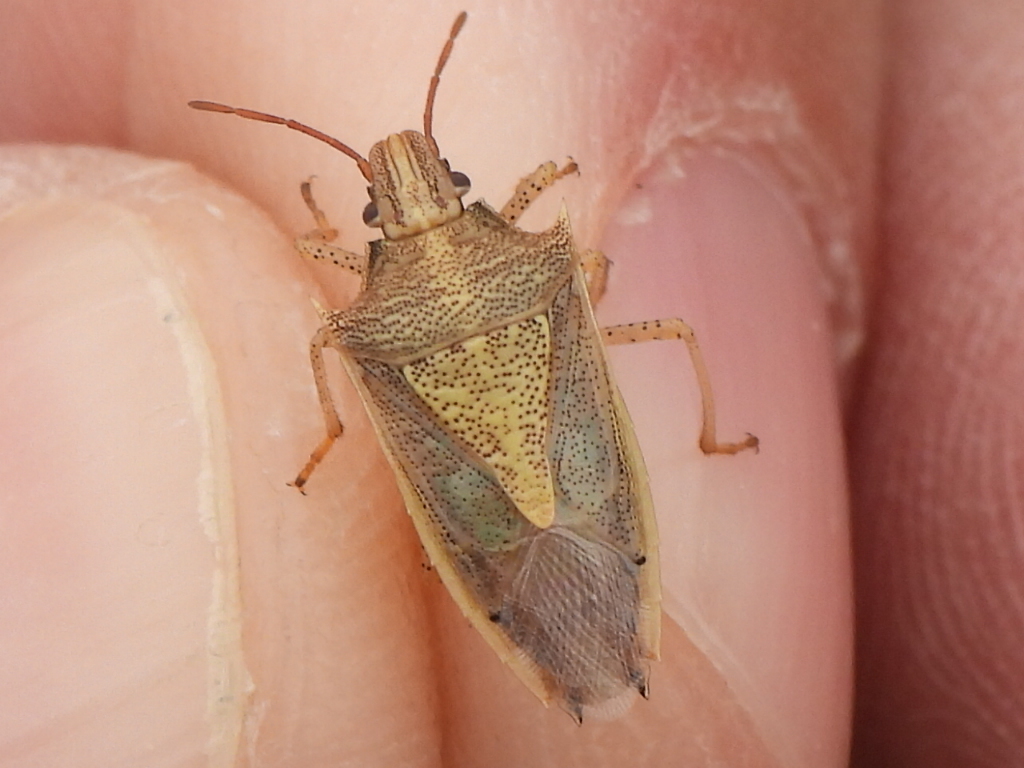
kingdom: Animalia
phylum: Arthropoda
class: Insecta
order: Hemiptera
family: Pentatomidae
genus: Oebalus
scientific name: Oebalus pugnax
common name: Rice stink bug
